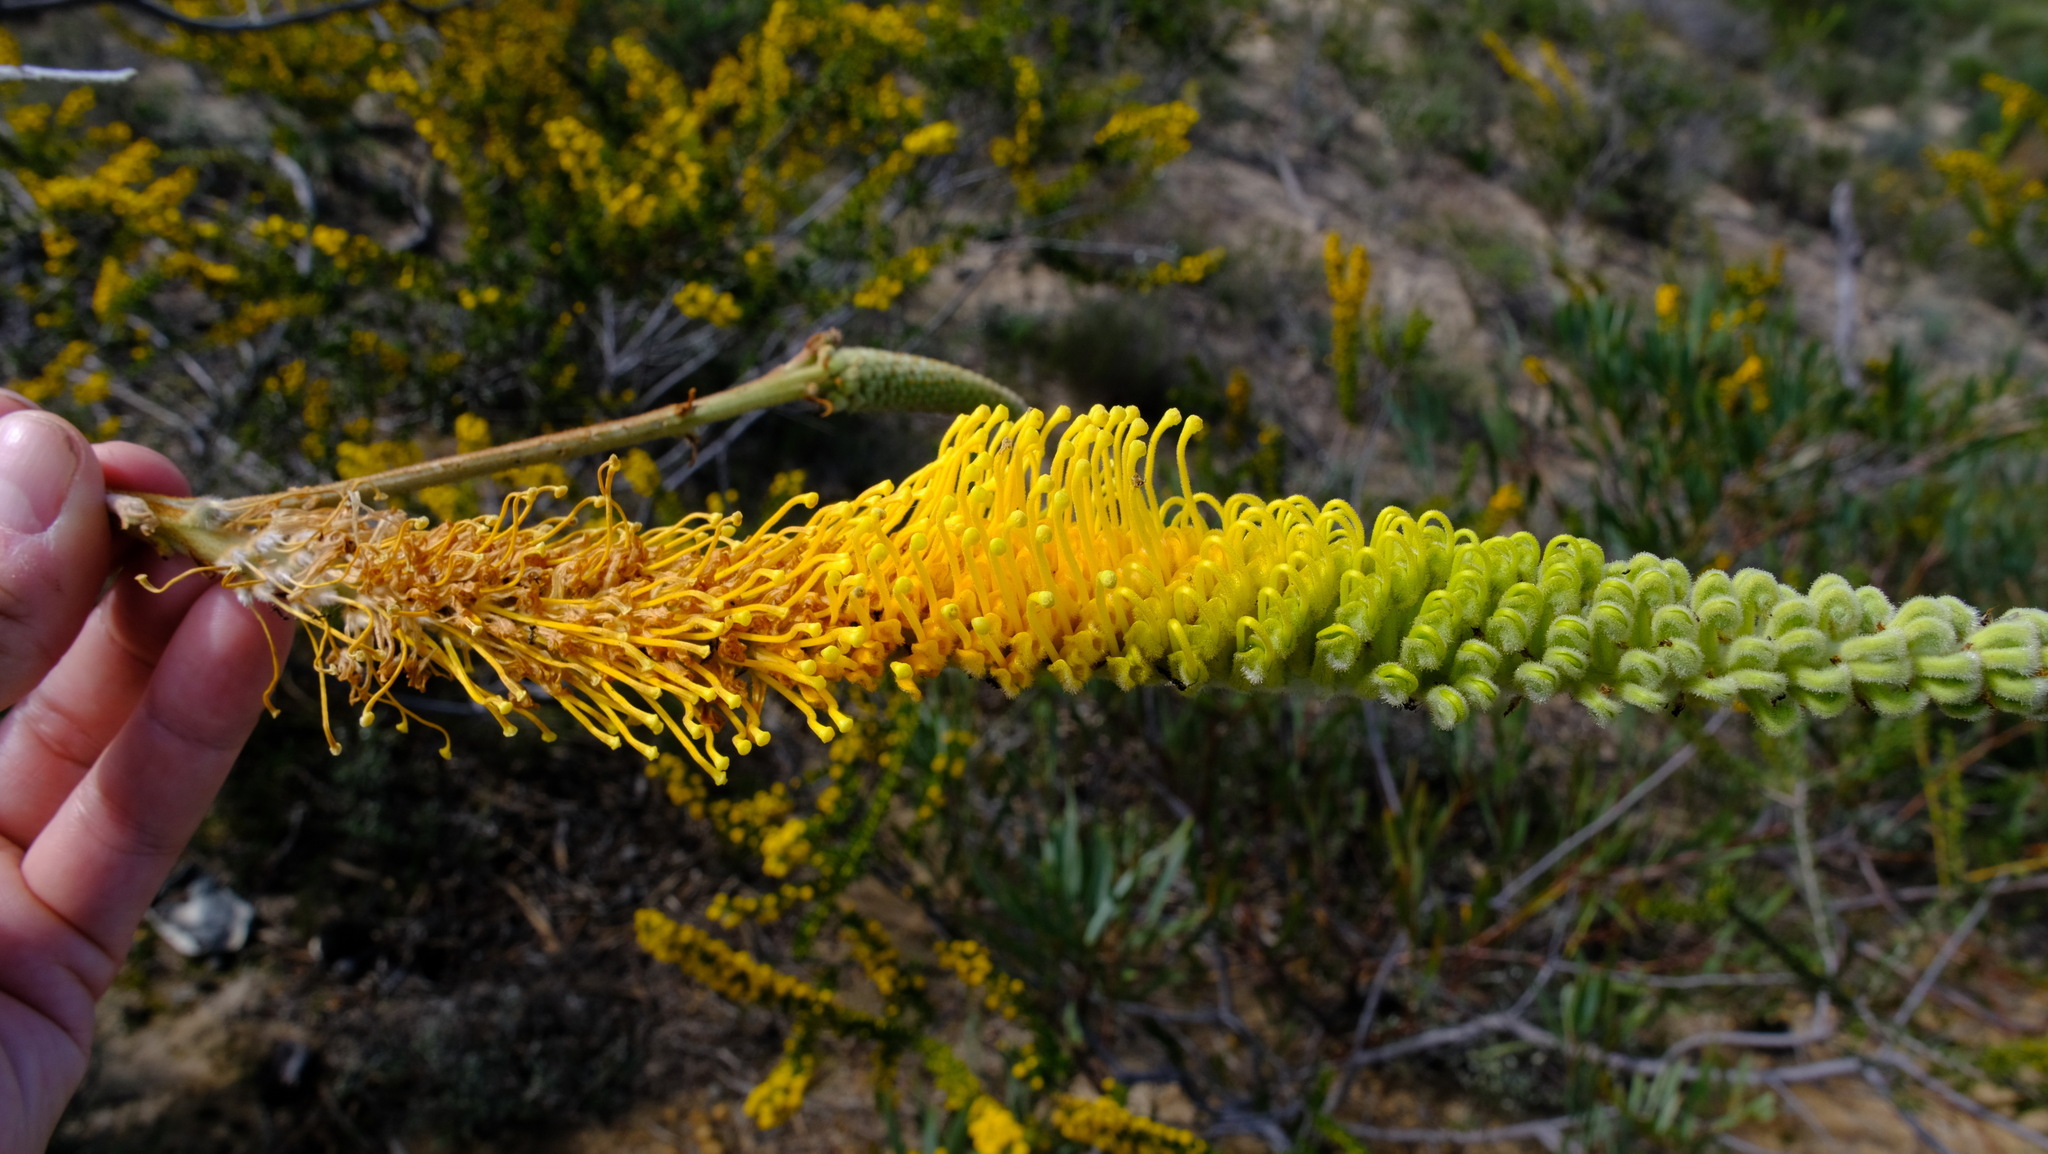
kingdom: Plantae
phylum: Tracheophyta
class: Magnoliopsida
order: Proteales
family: Proteaceae
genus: Grevillea
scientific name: Grevillea eriostachya
